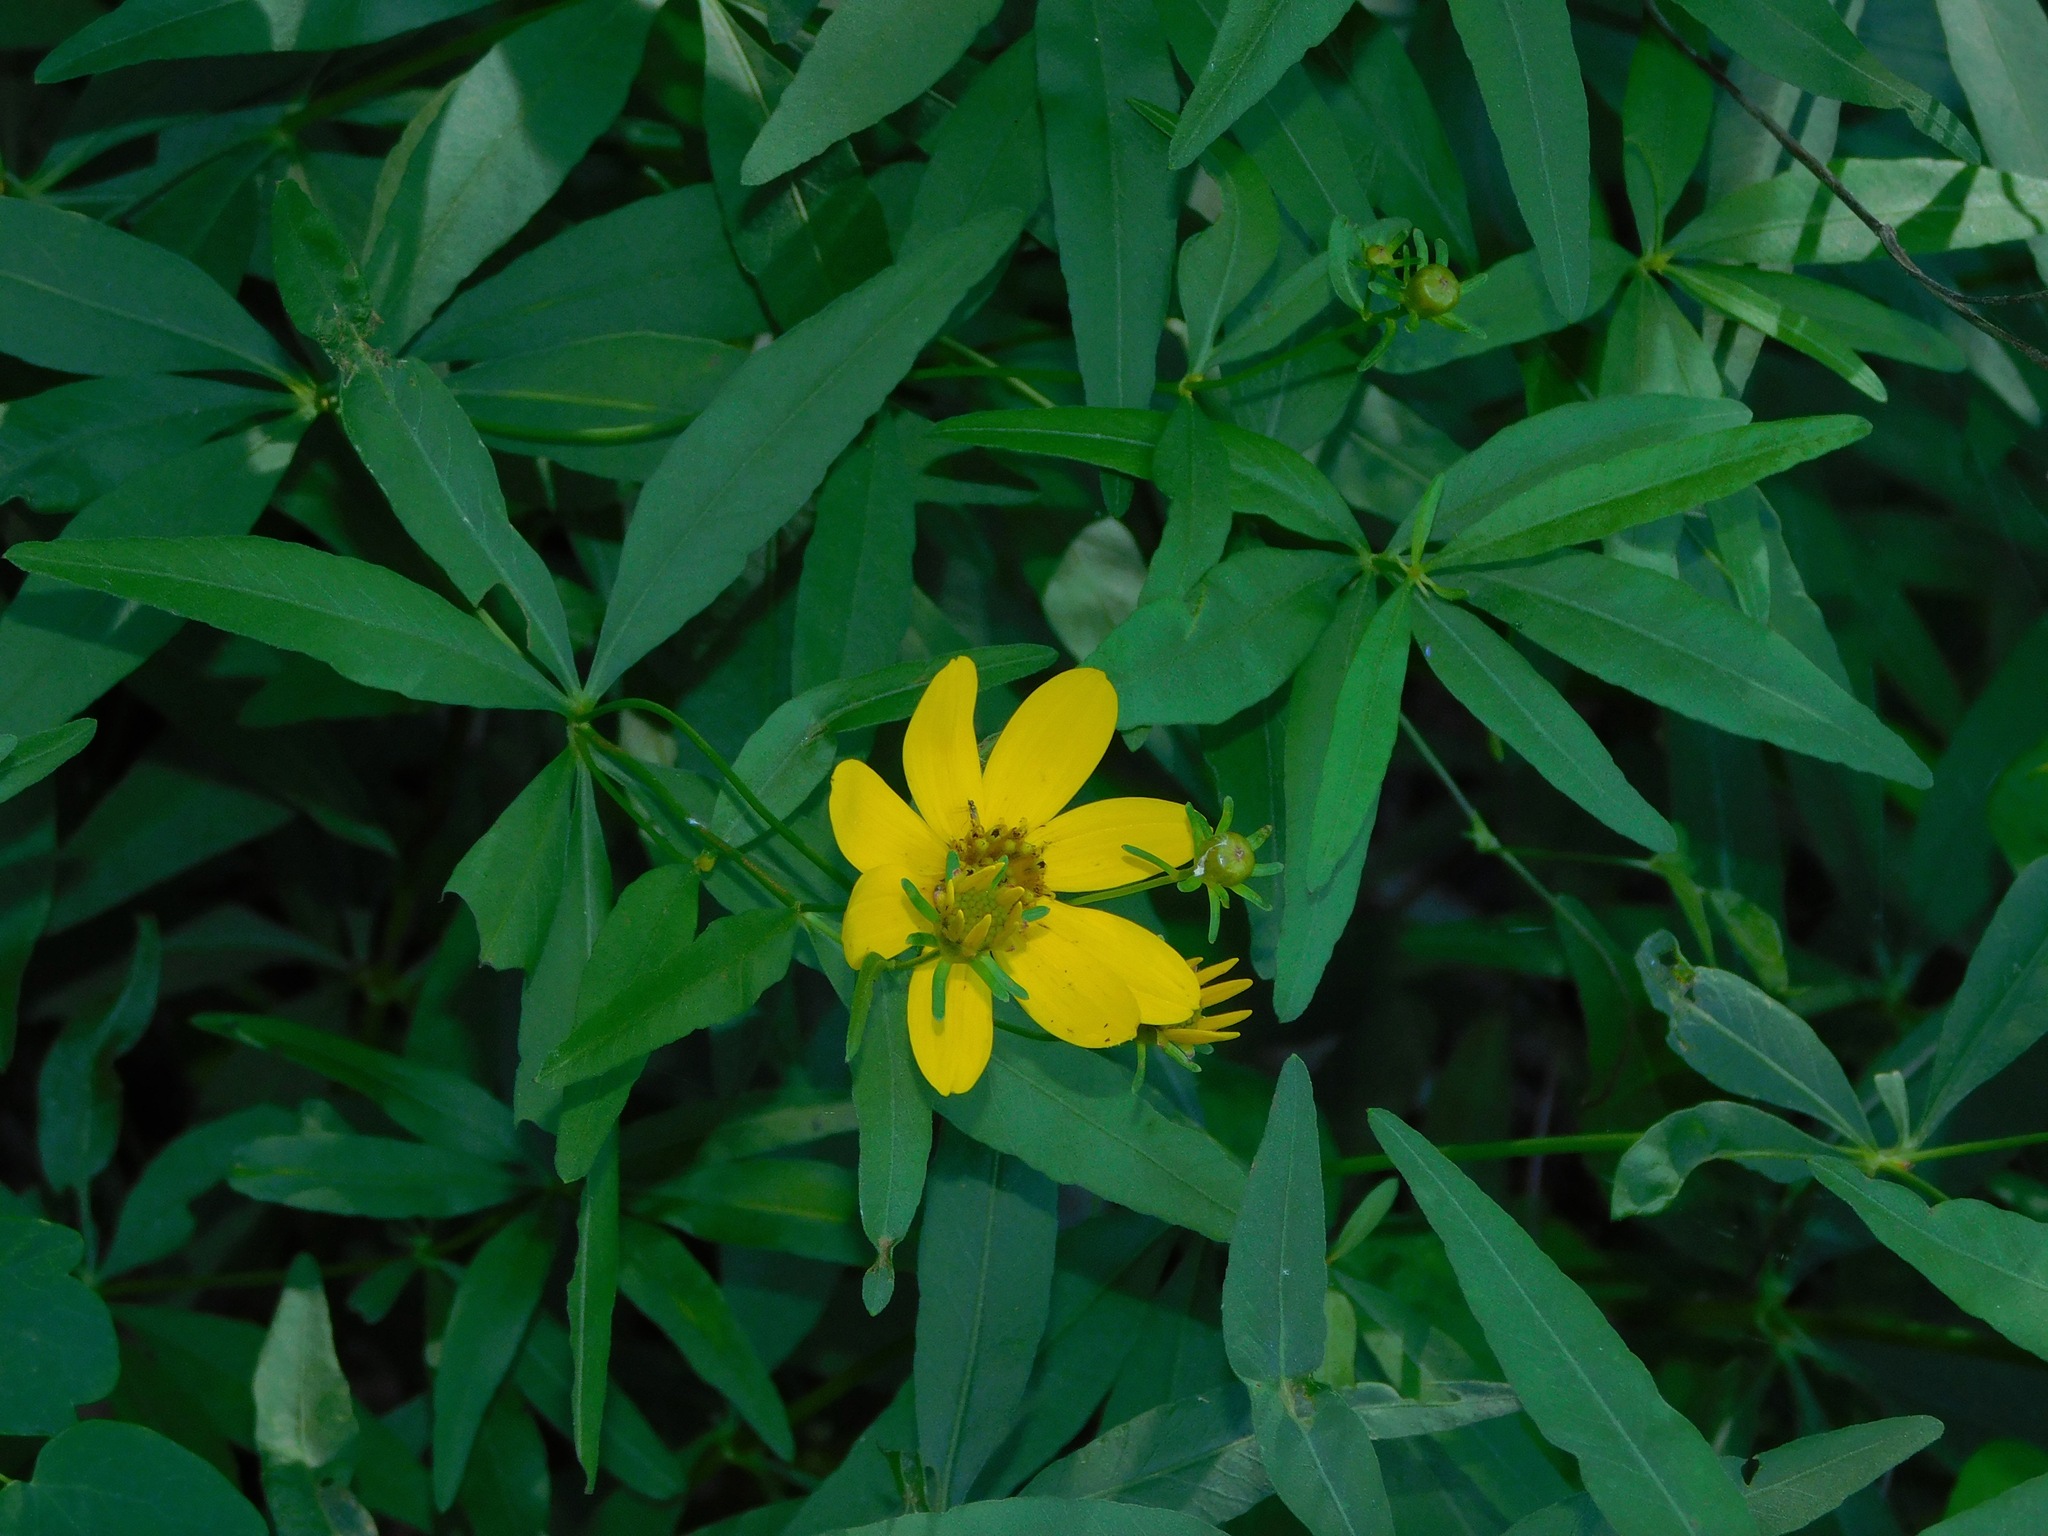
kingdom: Plantae
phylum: Tracheophyta
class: Magnoliopsida
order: Asterales
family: Asteraceae
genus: Coreopsis
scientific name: Coreopsis major
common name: Forest tickseed
